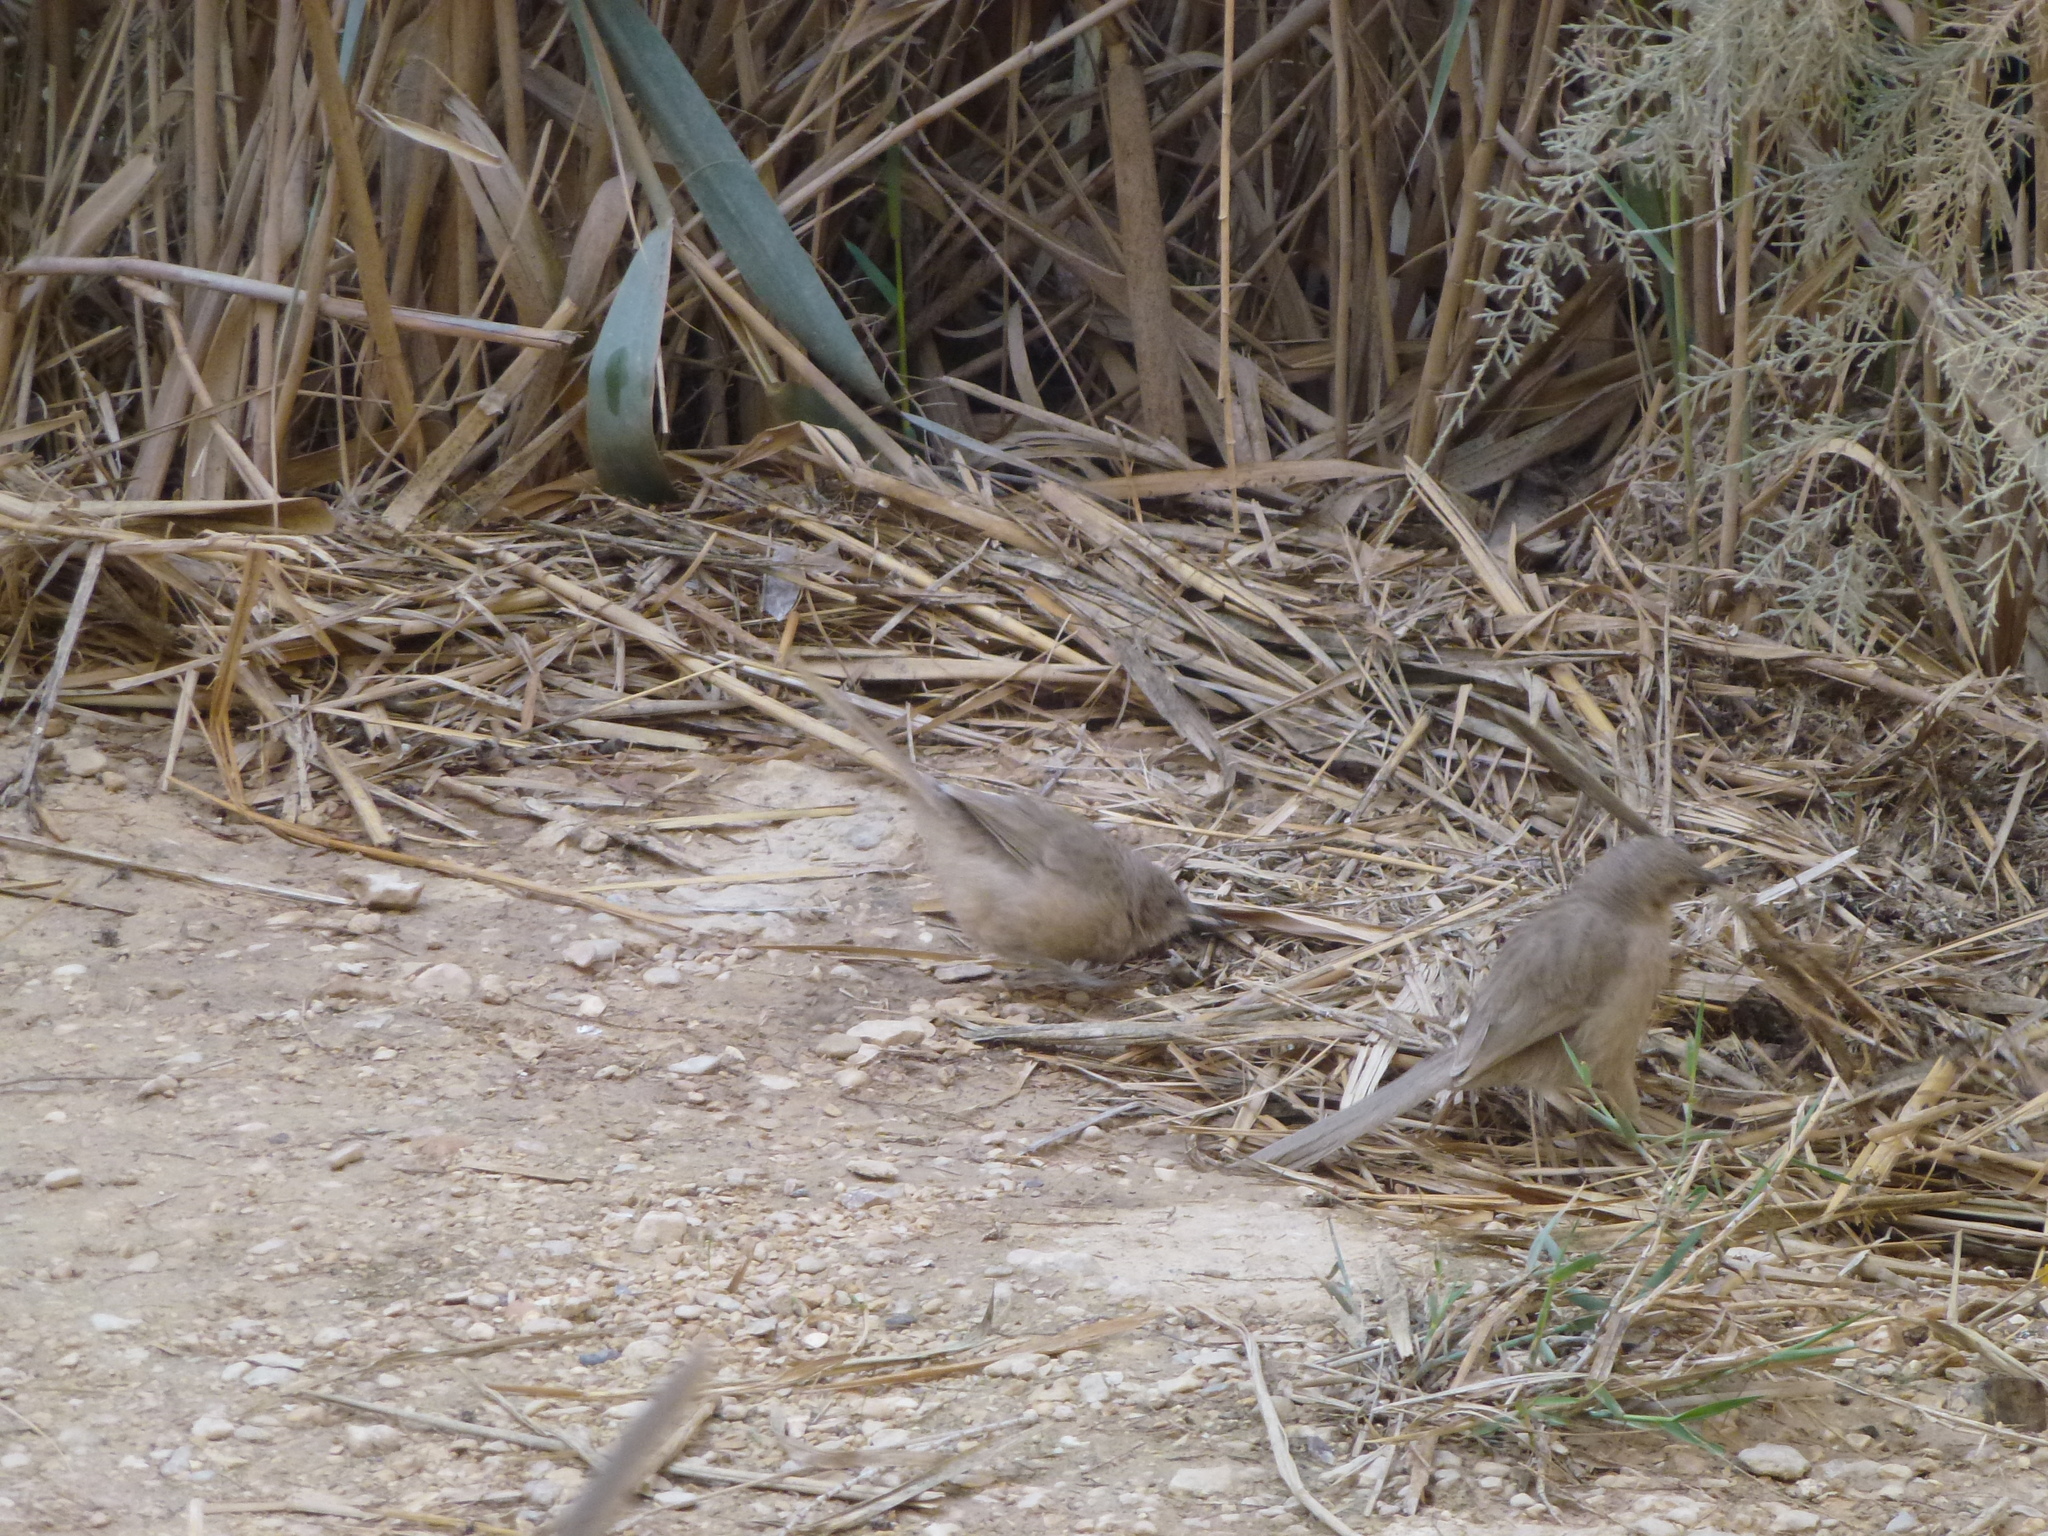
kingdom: Animalia
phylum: Chordata
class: Aves
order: Passeriformes
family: Leiothrichidae
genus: Turdoides
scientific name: Turdoides squamiceps
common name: Arabian babbler
